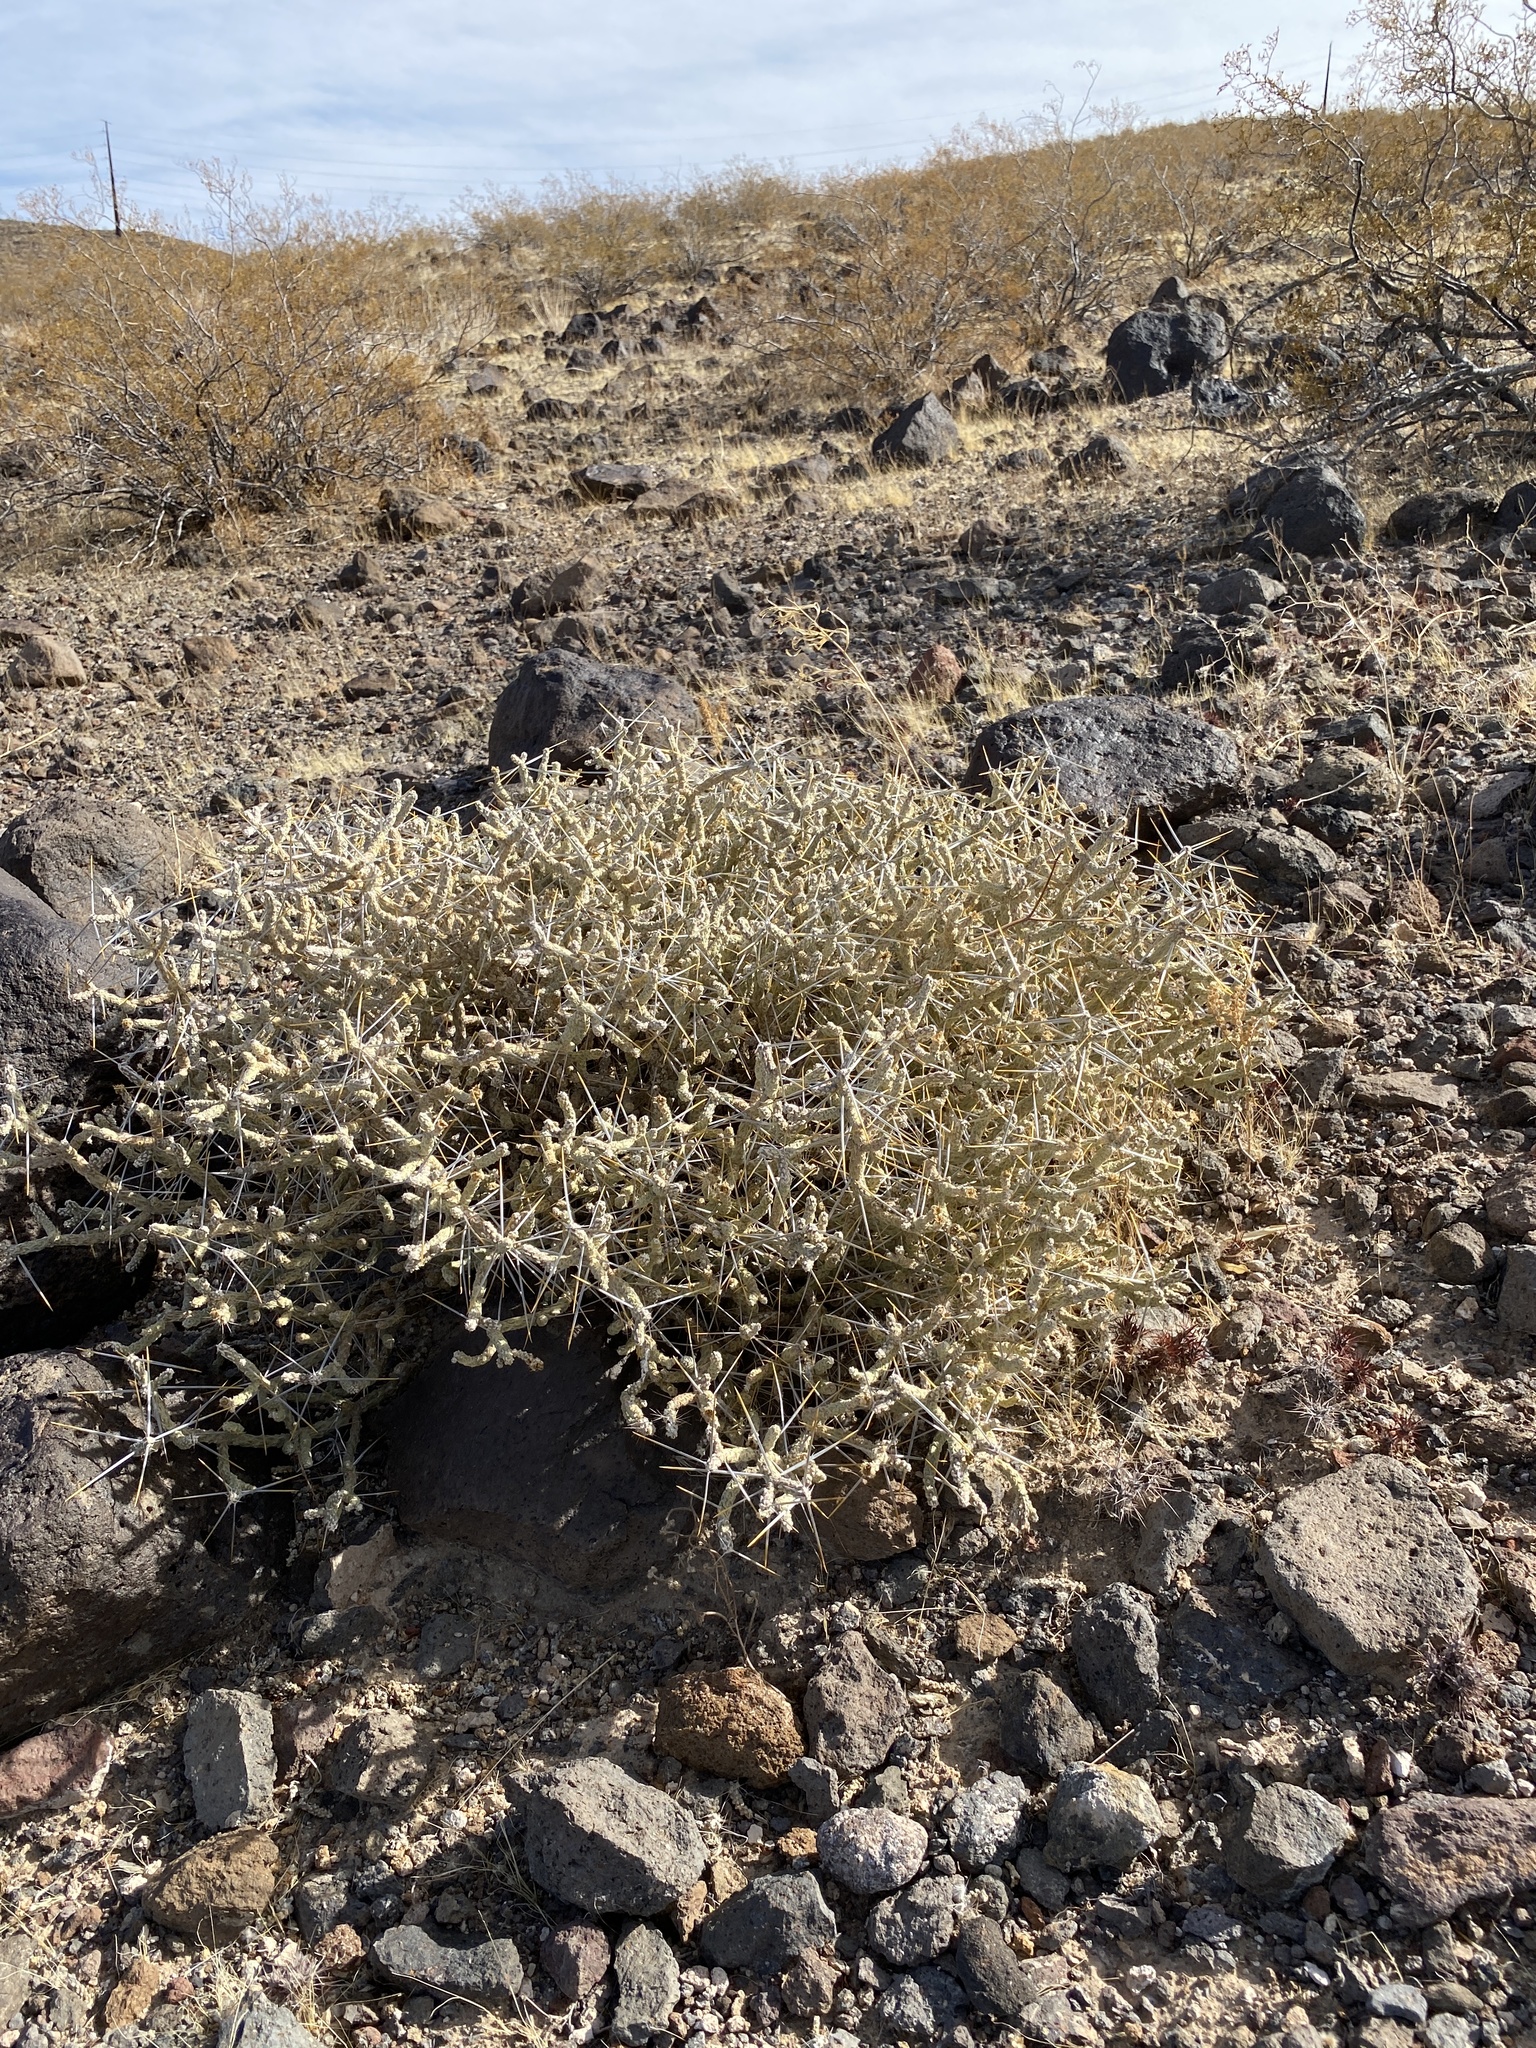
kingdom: Plantae
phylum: Tracheophyta
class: Magnoliopsida
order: Caryophyllales
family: Cactaceae
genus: Cylindropuntia
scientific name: Cylindropuntia ramosissima
